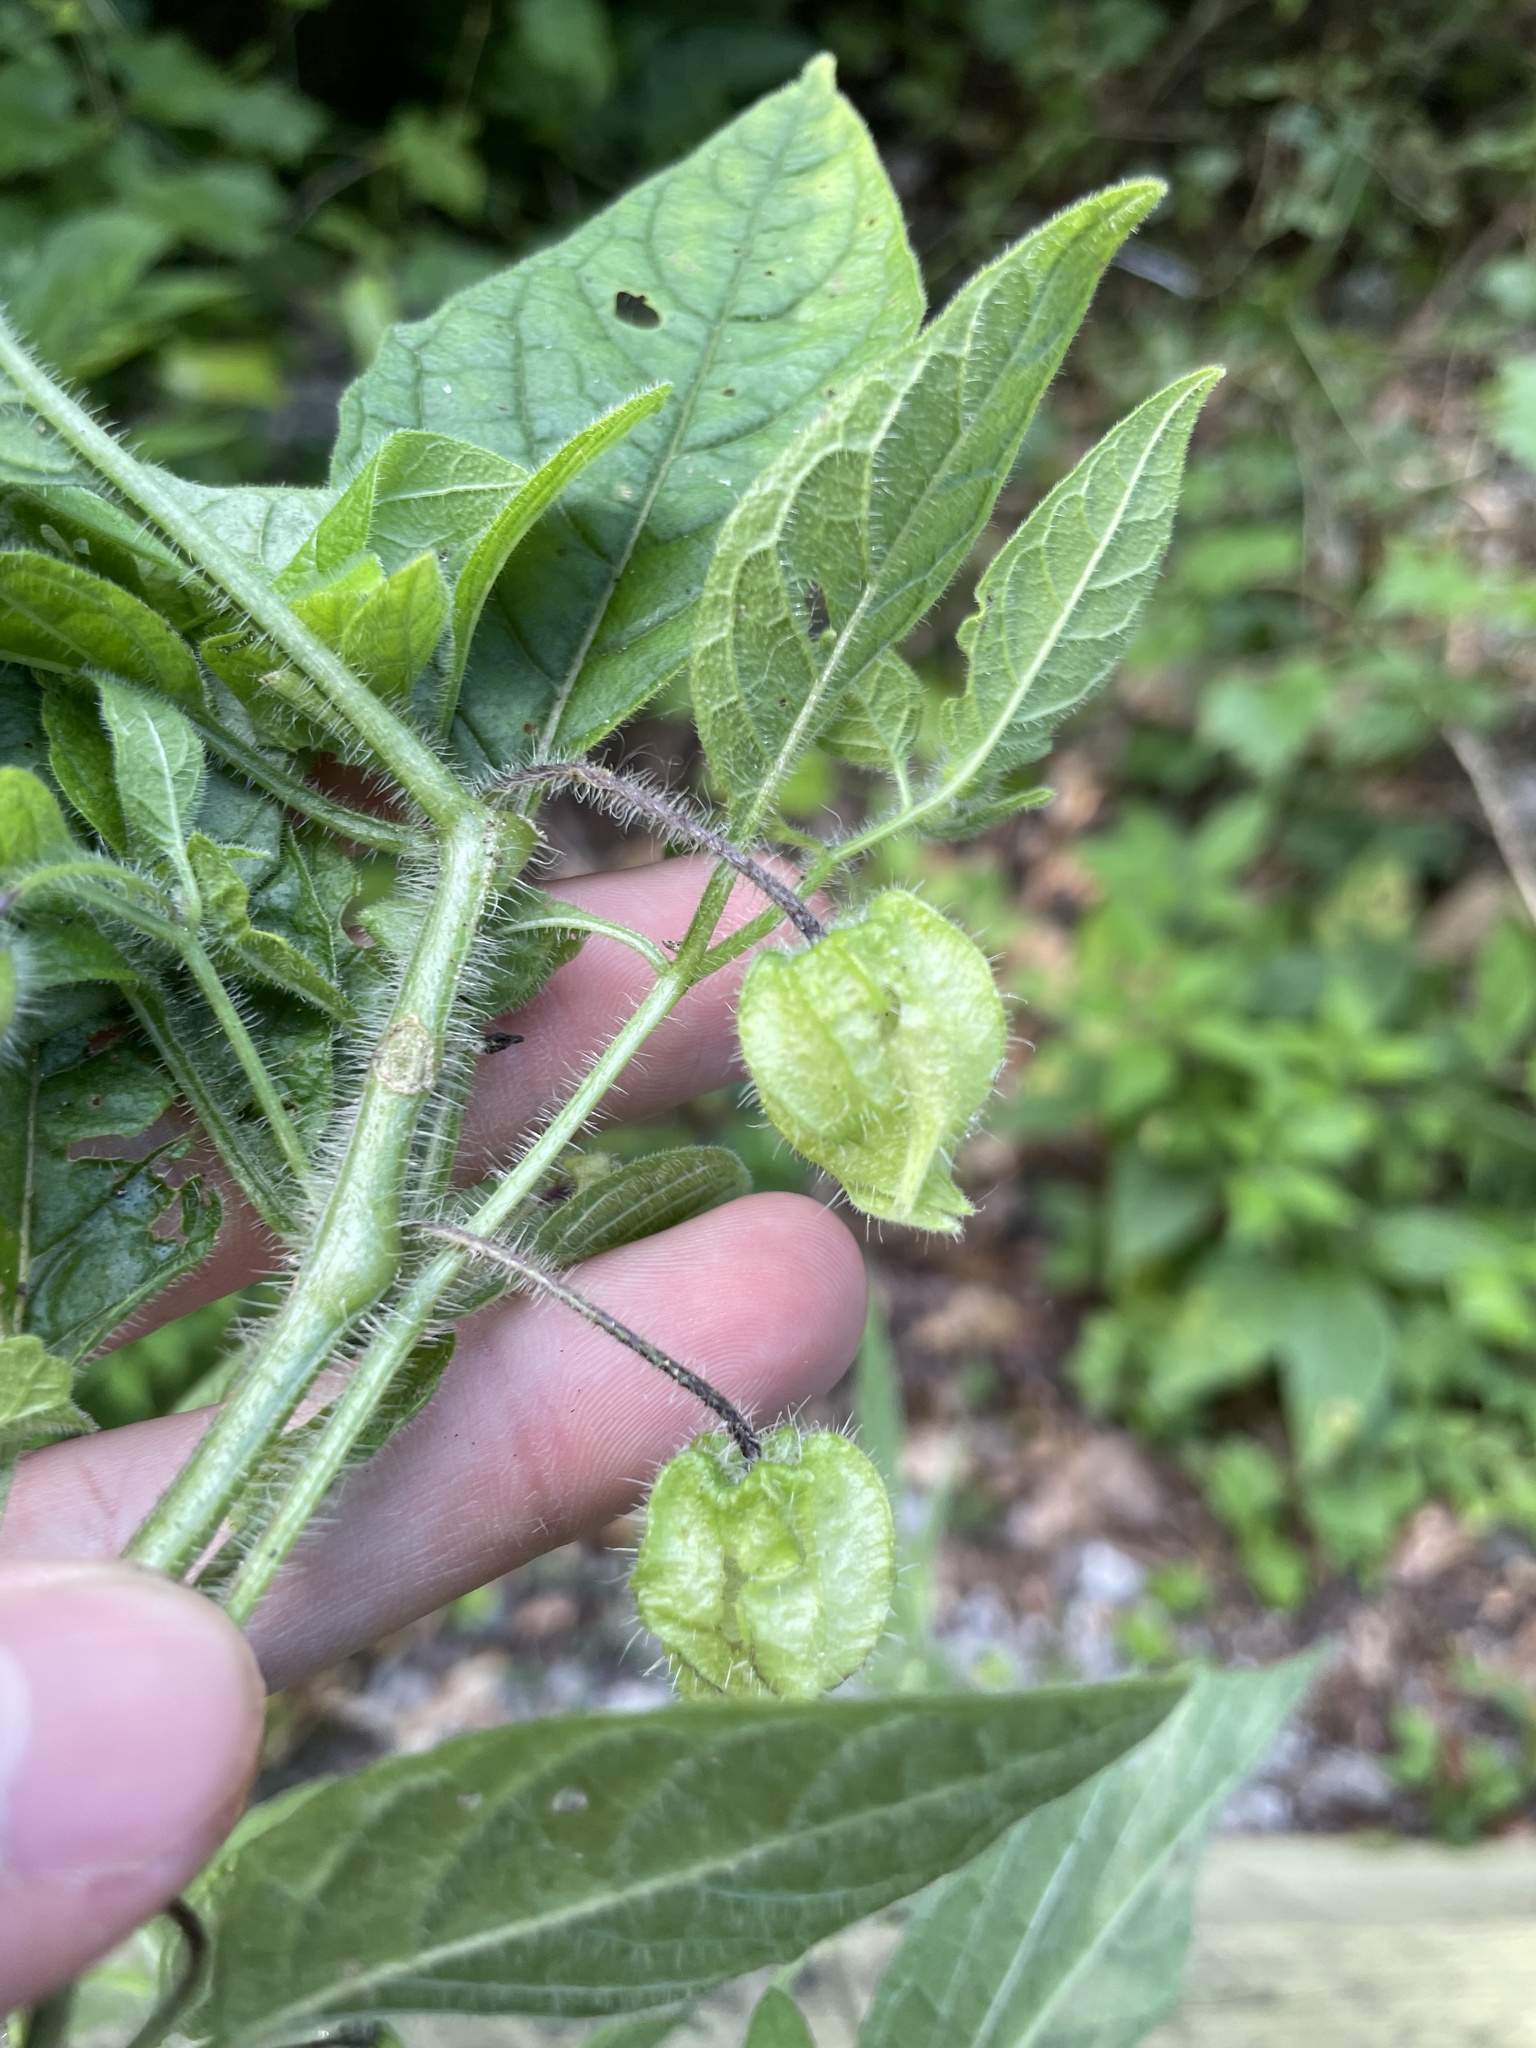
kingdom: Plantae
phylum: Tracheophyta
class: Magnoliopsida
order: Solanales
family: Solanaceae
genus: Physalis
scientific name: Physalis heterophylla
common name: Clammy ground-cherry
